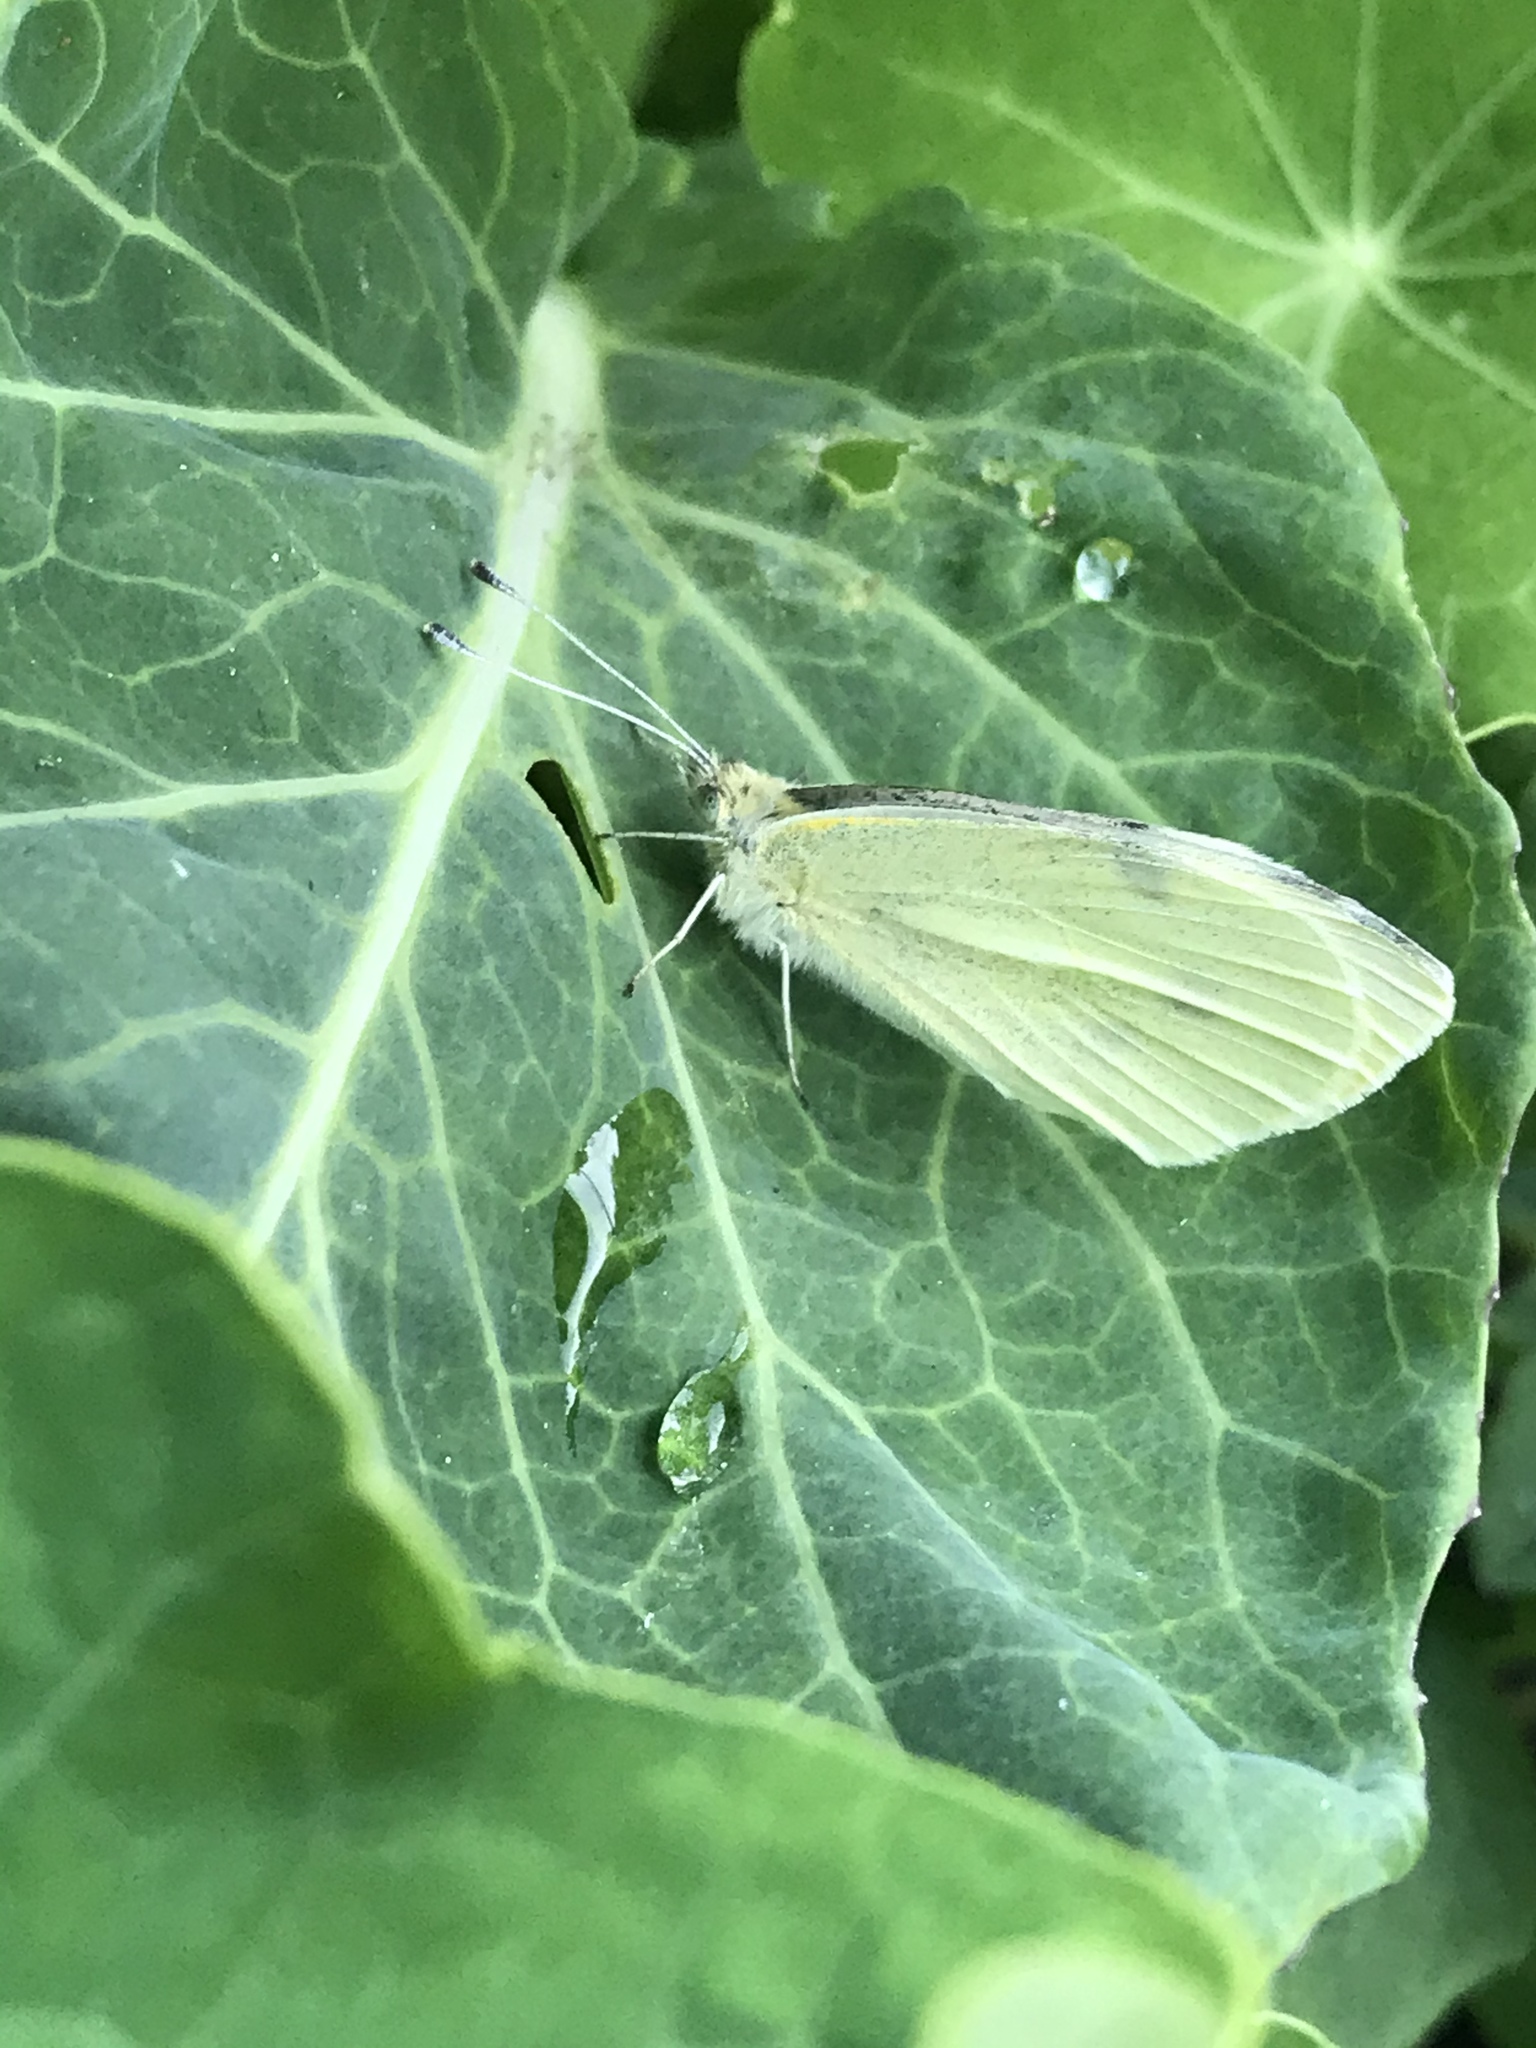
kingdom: Animalia
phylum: Arthropoda
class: Insecta
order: Lepidoptera
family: Pieridae
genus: Pieris
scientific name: Pieris rapae
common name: Small white
